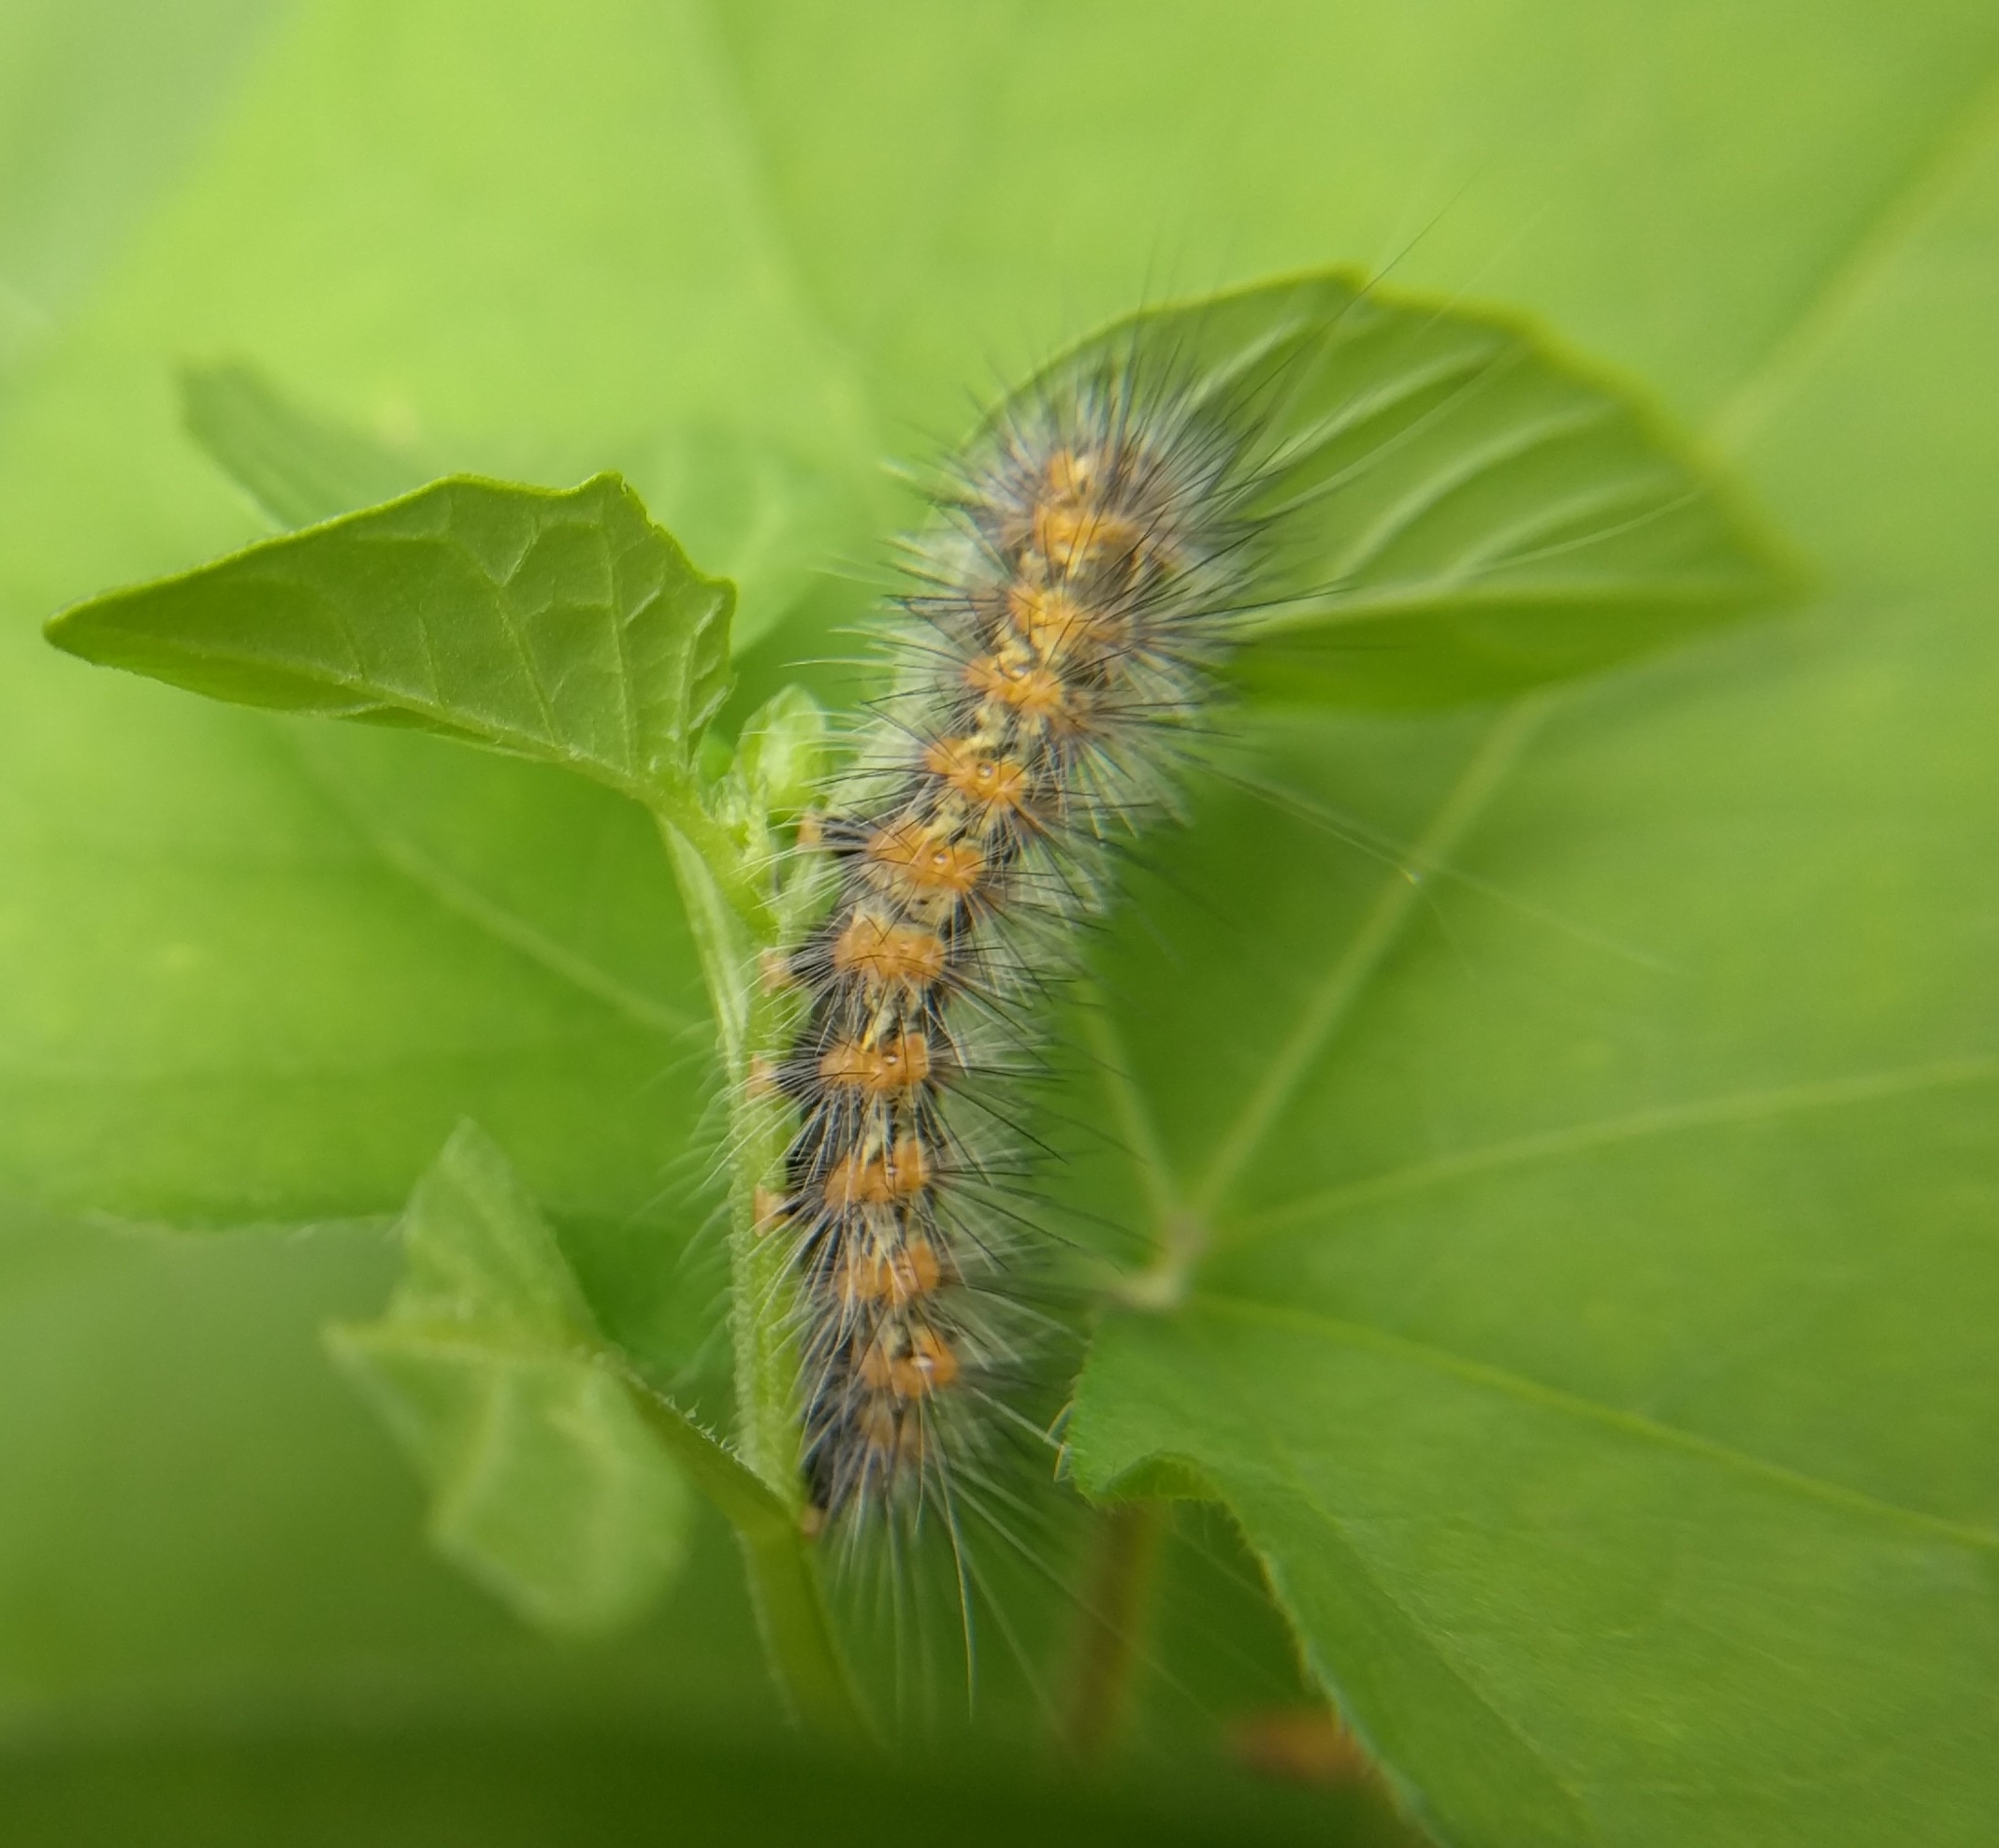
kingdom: Animalia
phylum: Arthropoda
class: Insecta
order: Lepidoptera
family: Erebidae
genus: Estigmene
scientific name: Estigmene acrea
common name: Salt marsh moth
